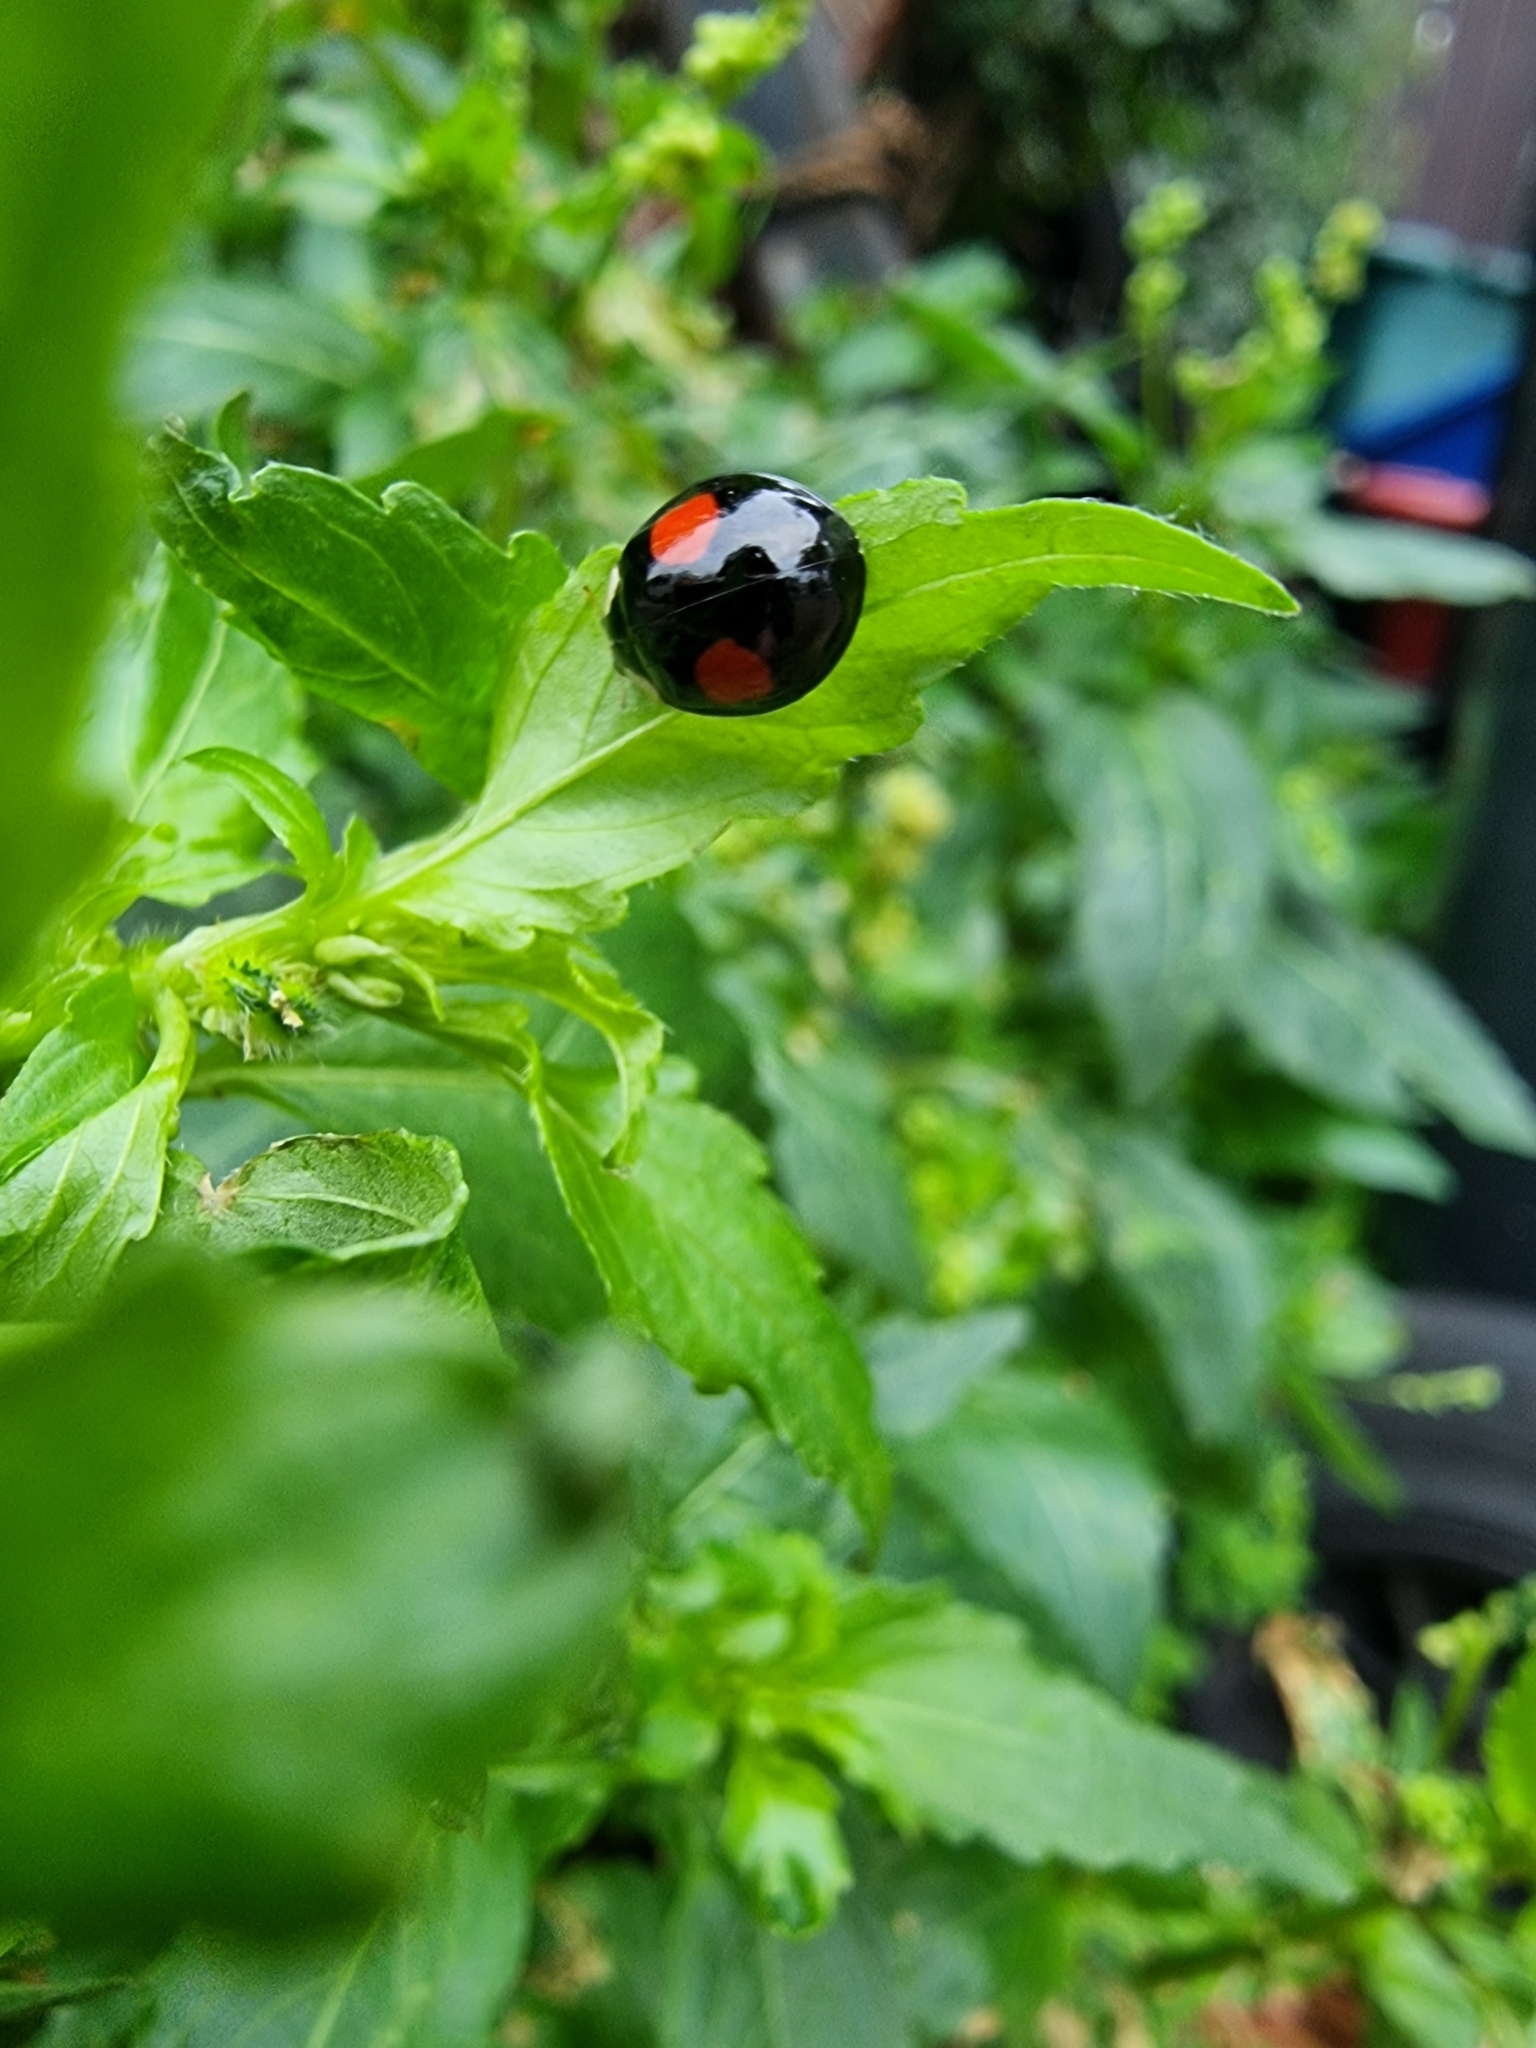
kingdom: Animalia
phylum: Arthropoda
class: Insecta
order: Coleoptera
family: Coccinellidae
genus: Harmonia
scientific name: Harmonia axyridis
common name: Harlequin ladybird
